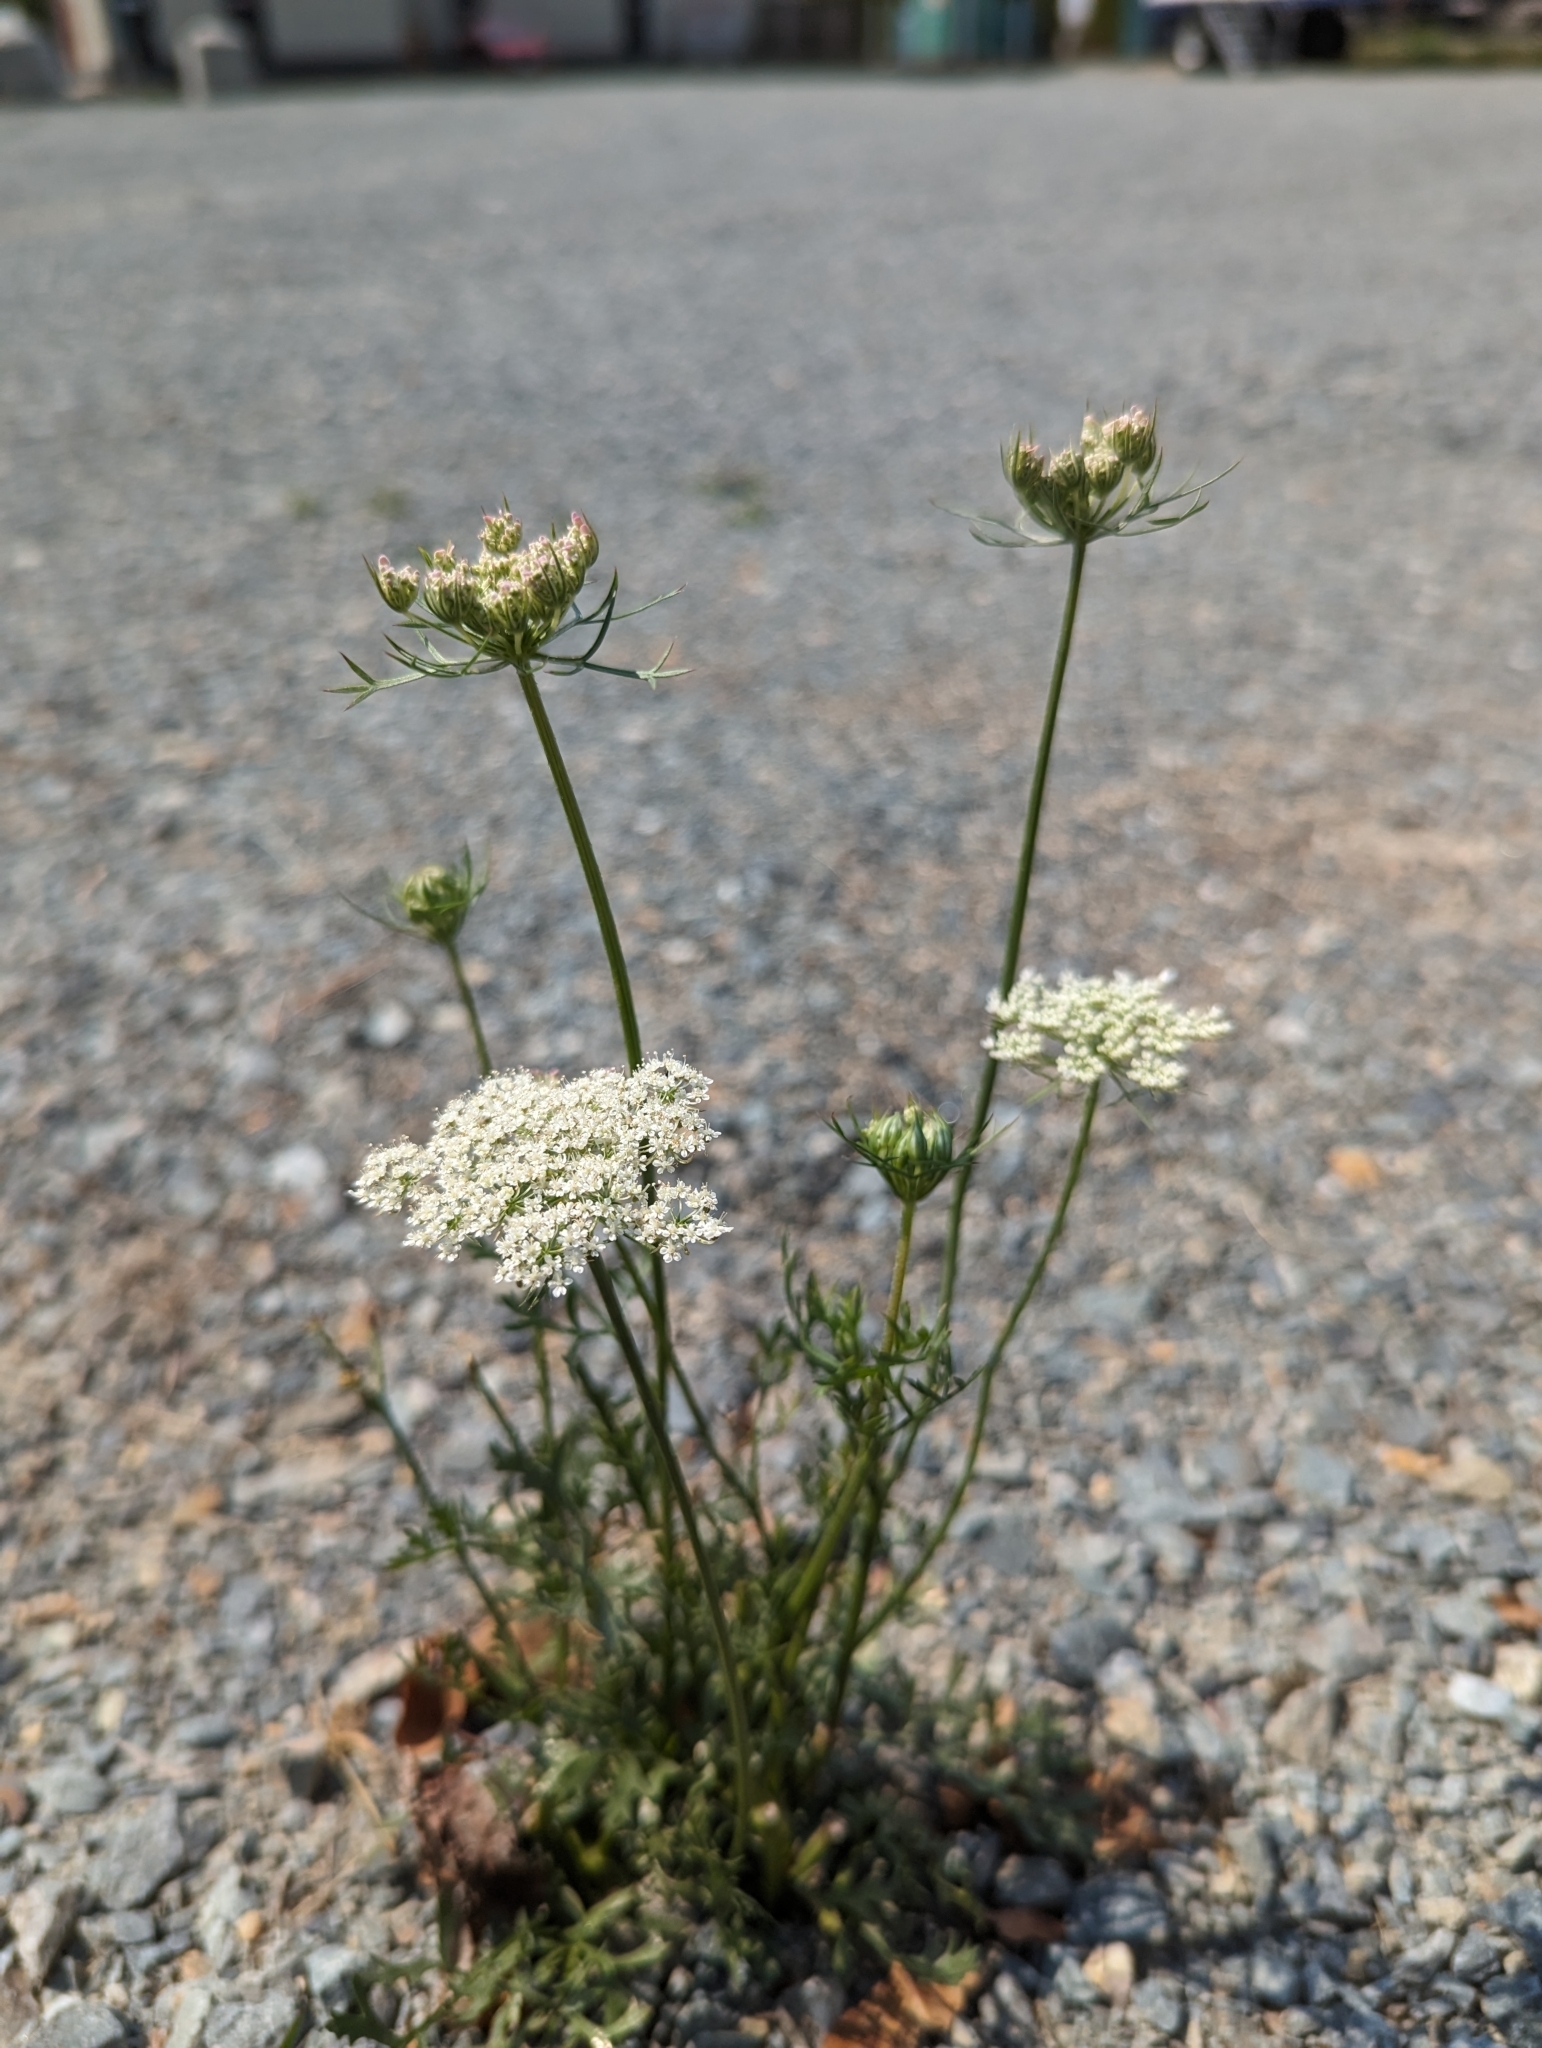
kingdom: Plantae
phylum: Tracheophyta
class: Magnoliopsida
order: Apiales
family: Apiaceae
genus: Daucus
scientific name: Daucus carota
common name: Wild carrot
